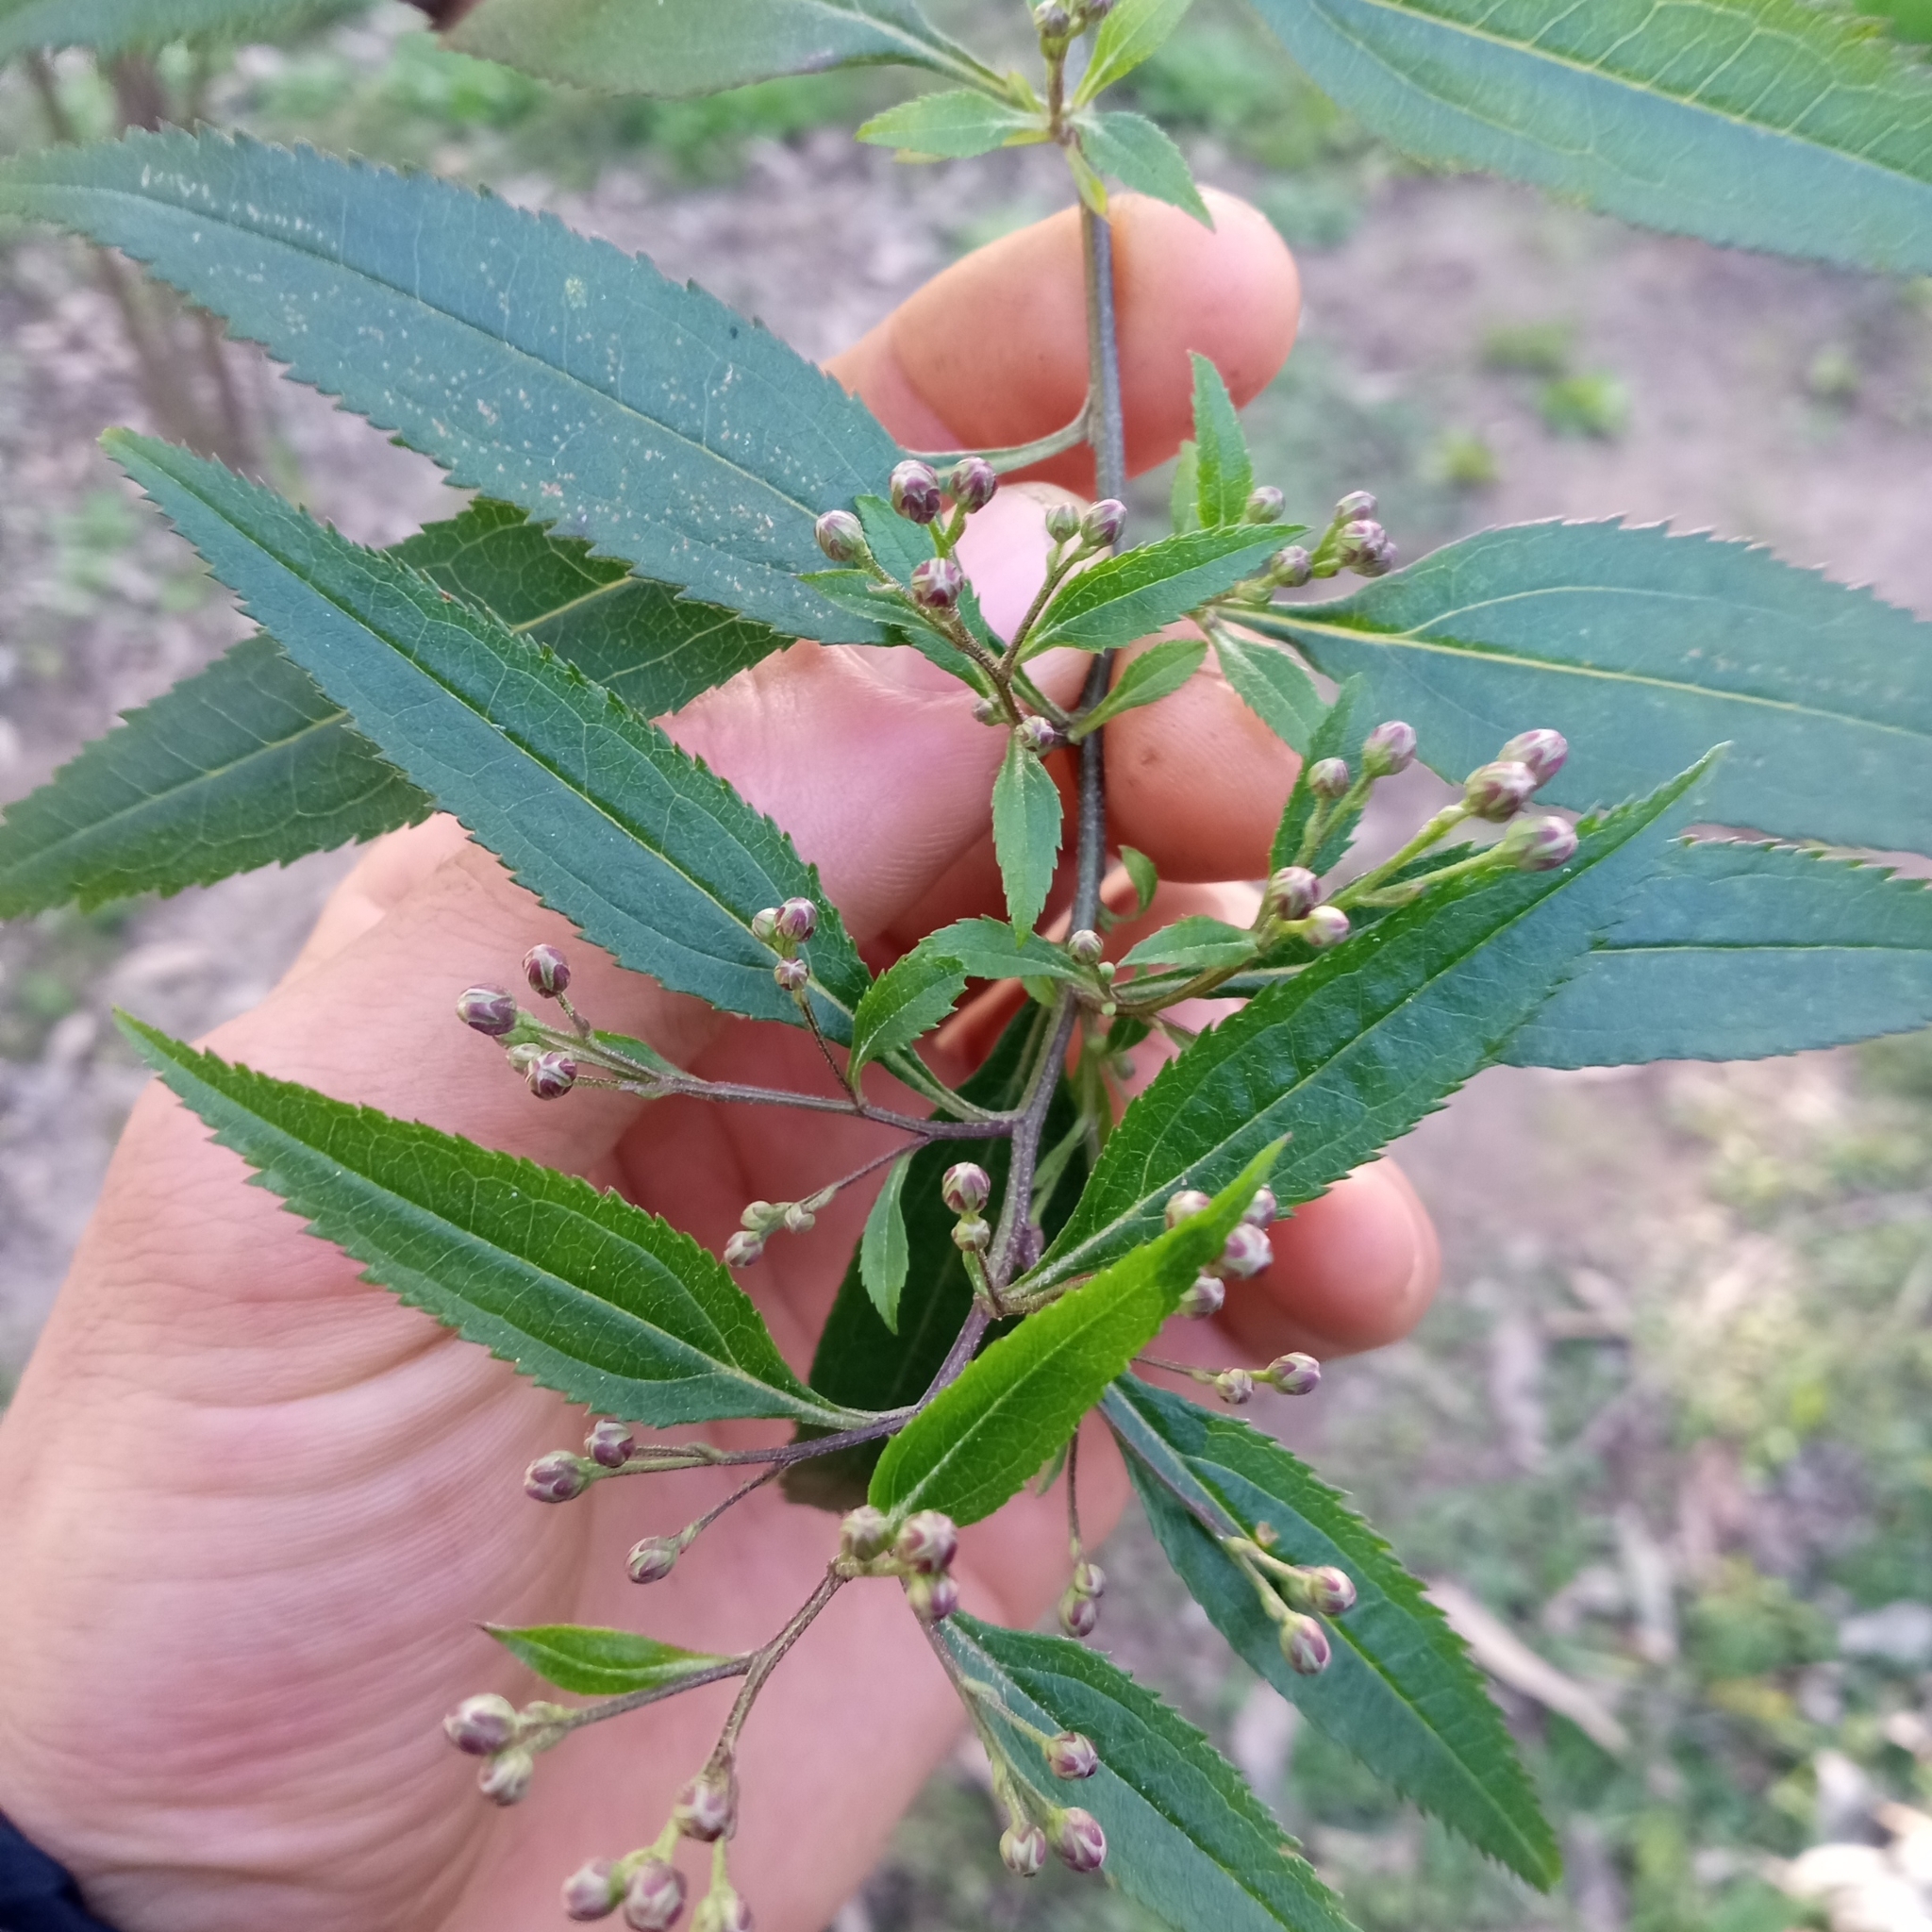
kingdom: Plantae
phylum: Tracheophyta
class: Magnoliopsida
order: Asterales
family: Asteraceae
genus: Baccharis
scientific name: Baccharis punctulata
